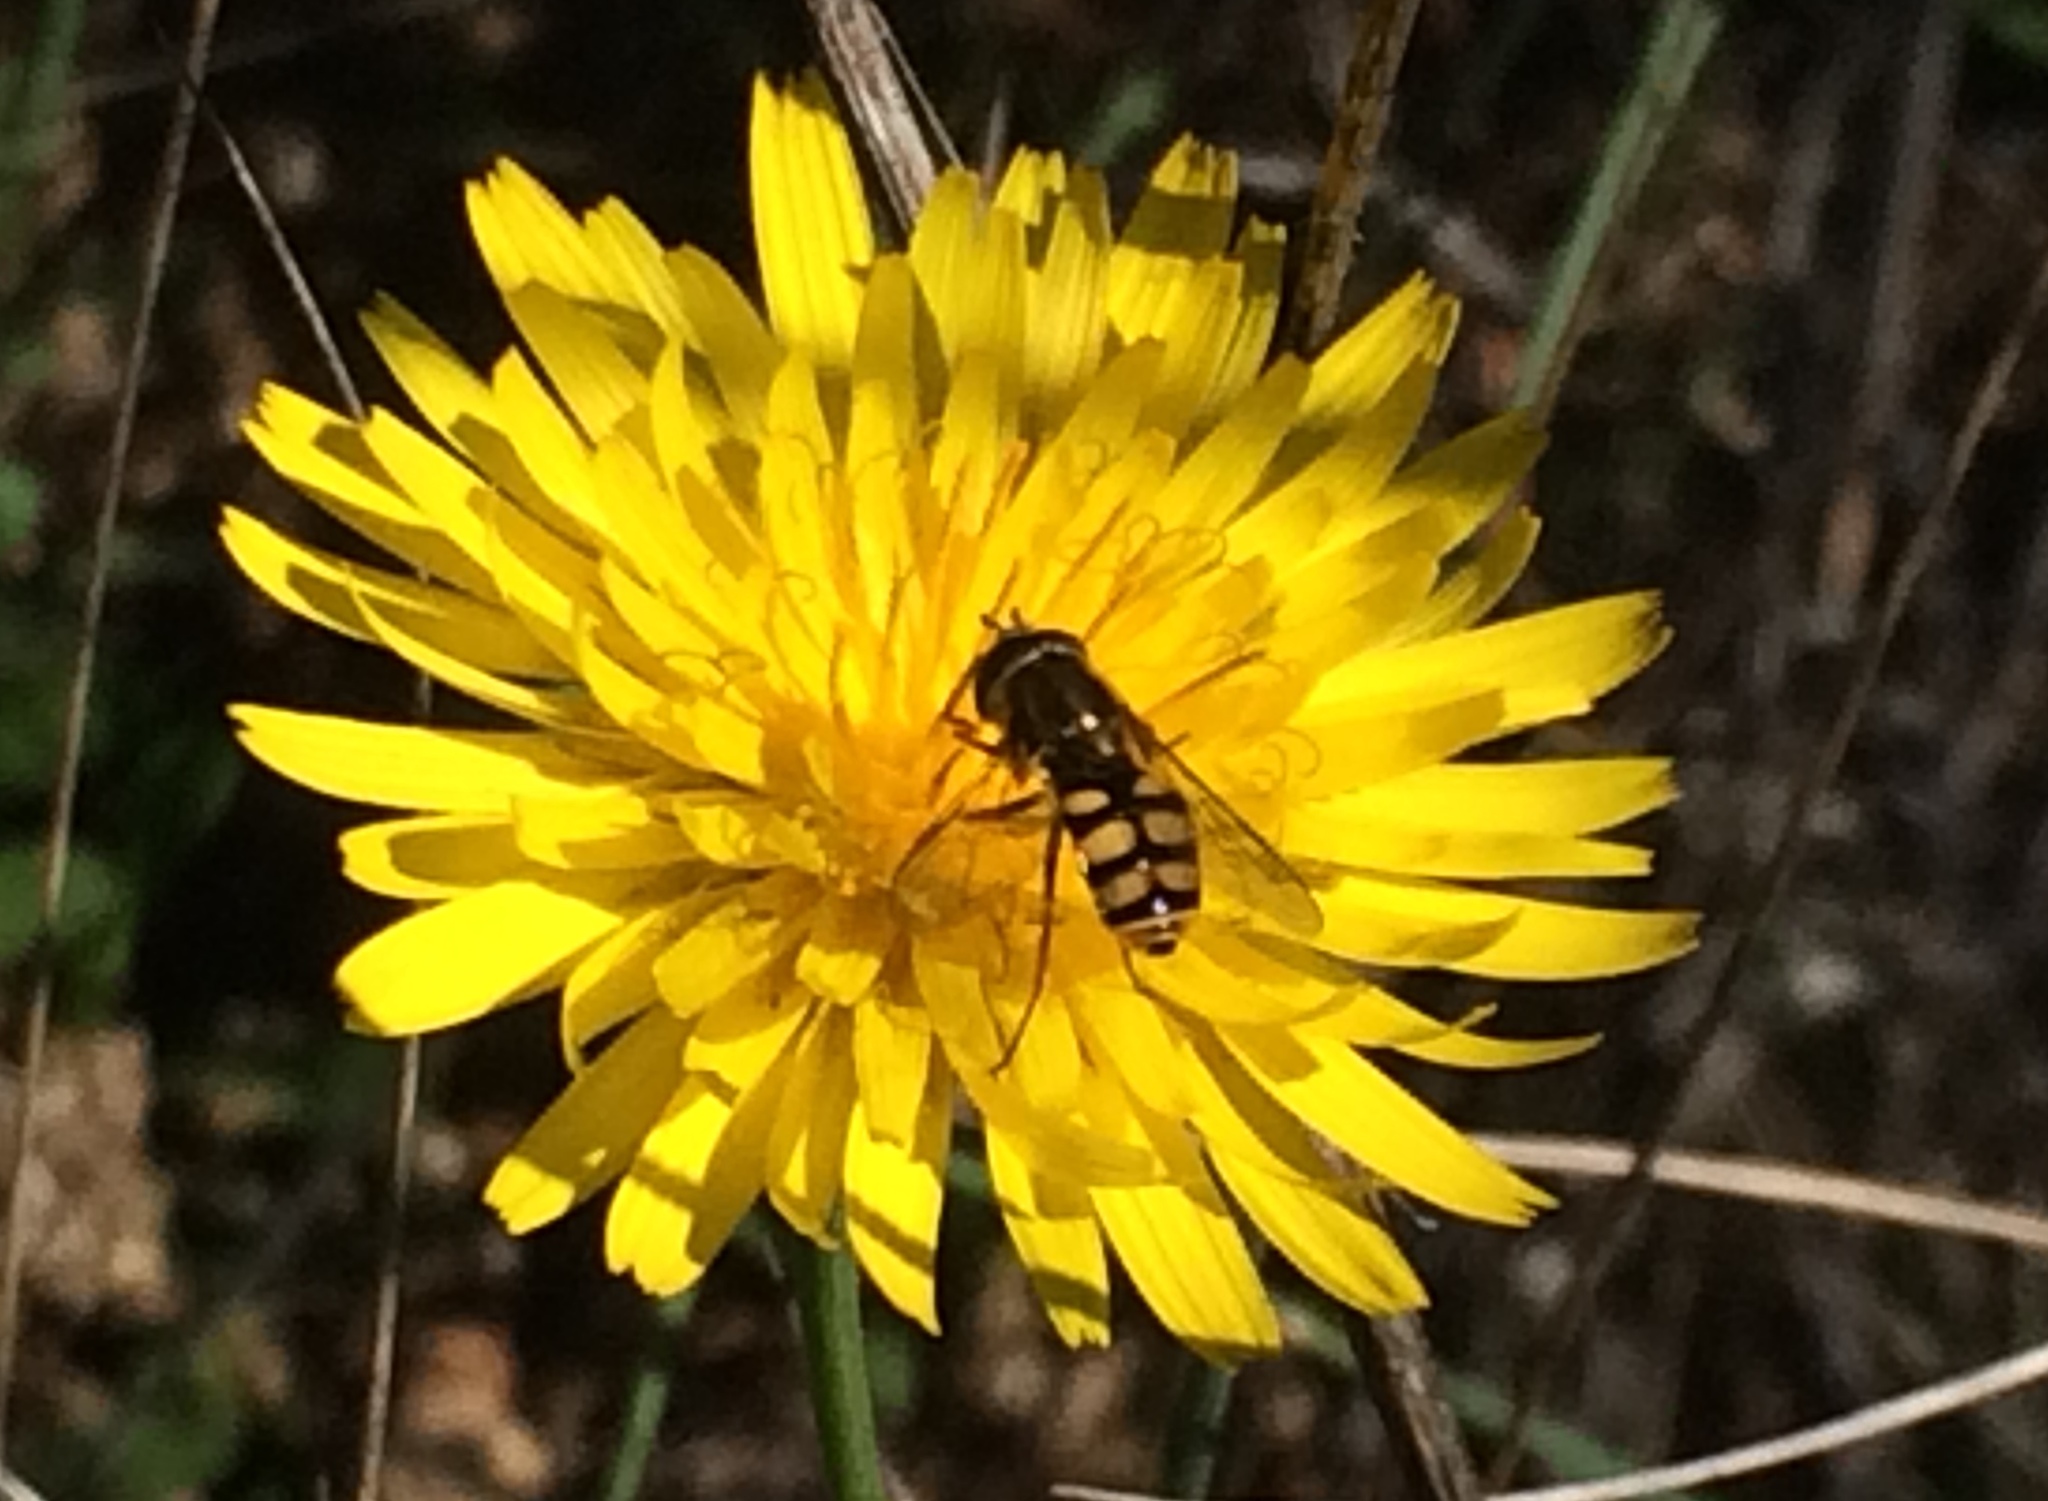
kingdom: Animalia
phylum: Arthropoda
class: Insecta
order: Diptera
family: Syrphidae
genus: Eupeodes
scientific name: Eupeodes corollae
